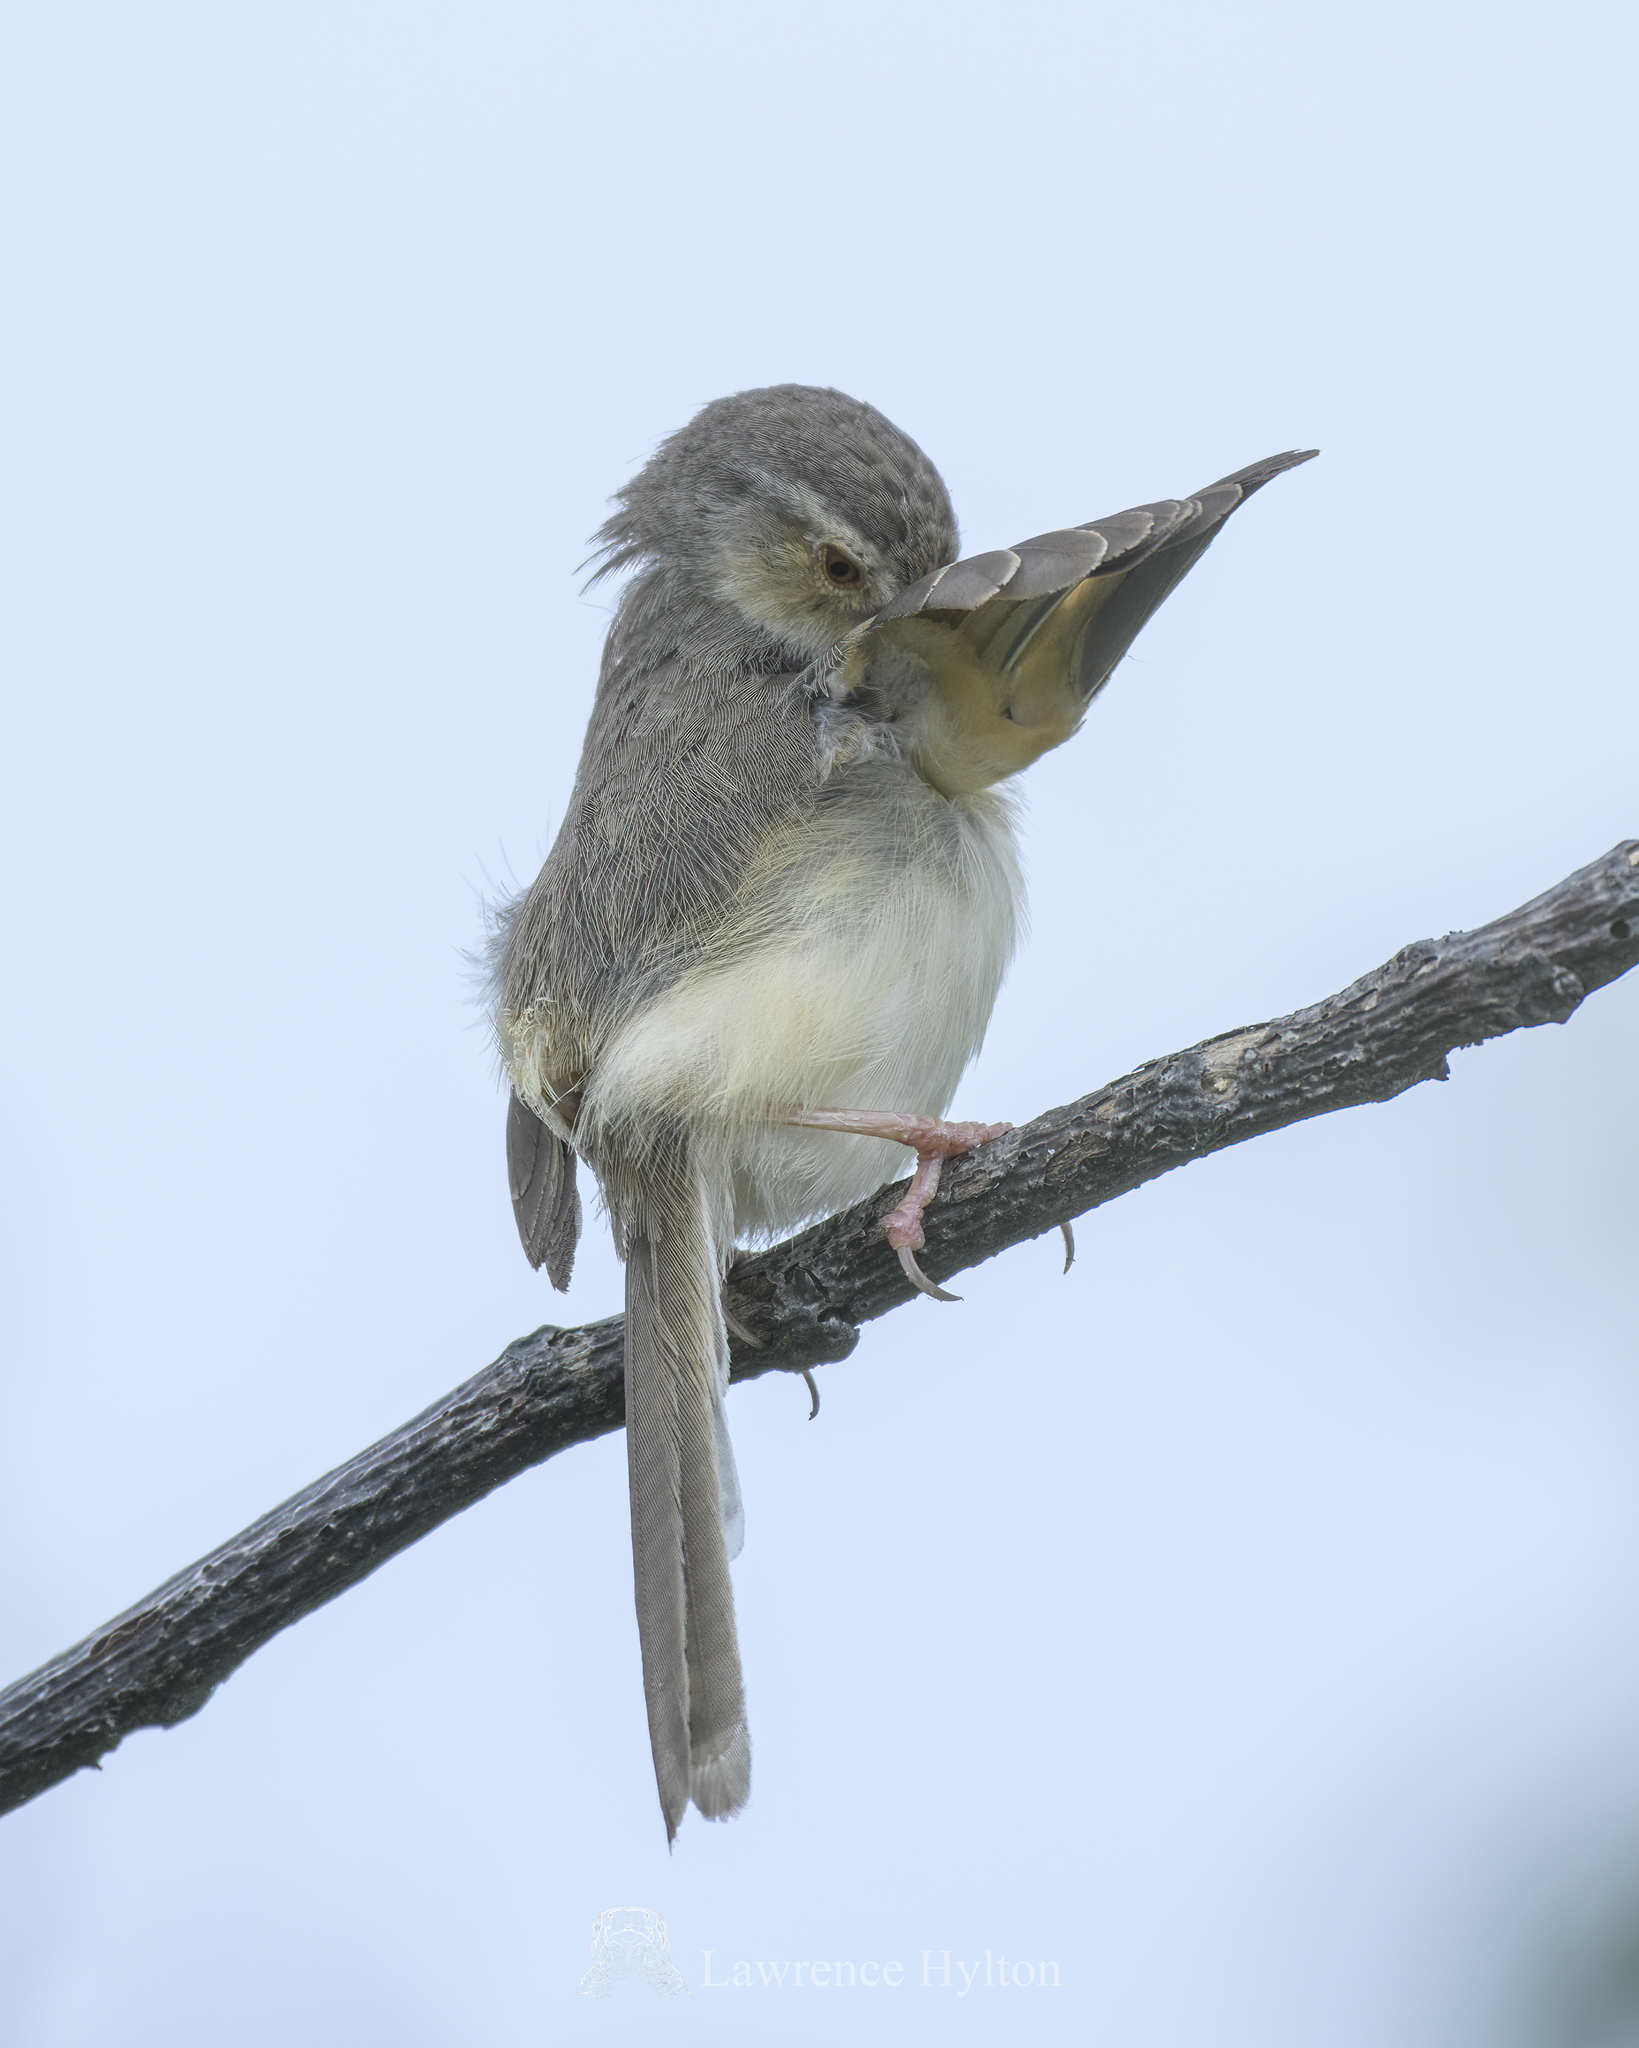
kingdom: Animalia
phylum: Chordata
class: Aves
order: Passeriformes
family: Cisticolidae
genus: Prinia
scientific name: Prinia inornata
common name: Plain prinia
